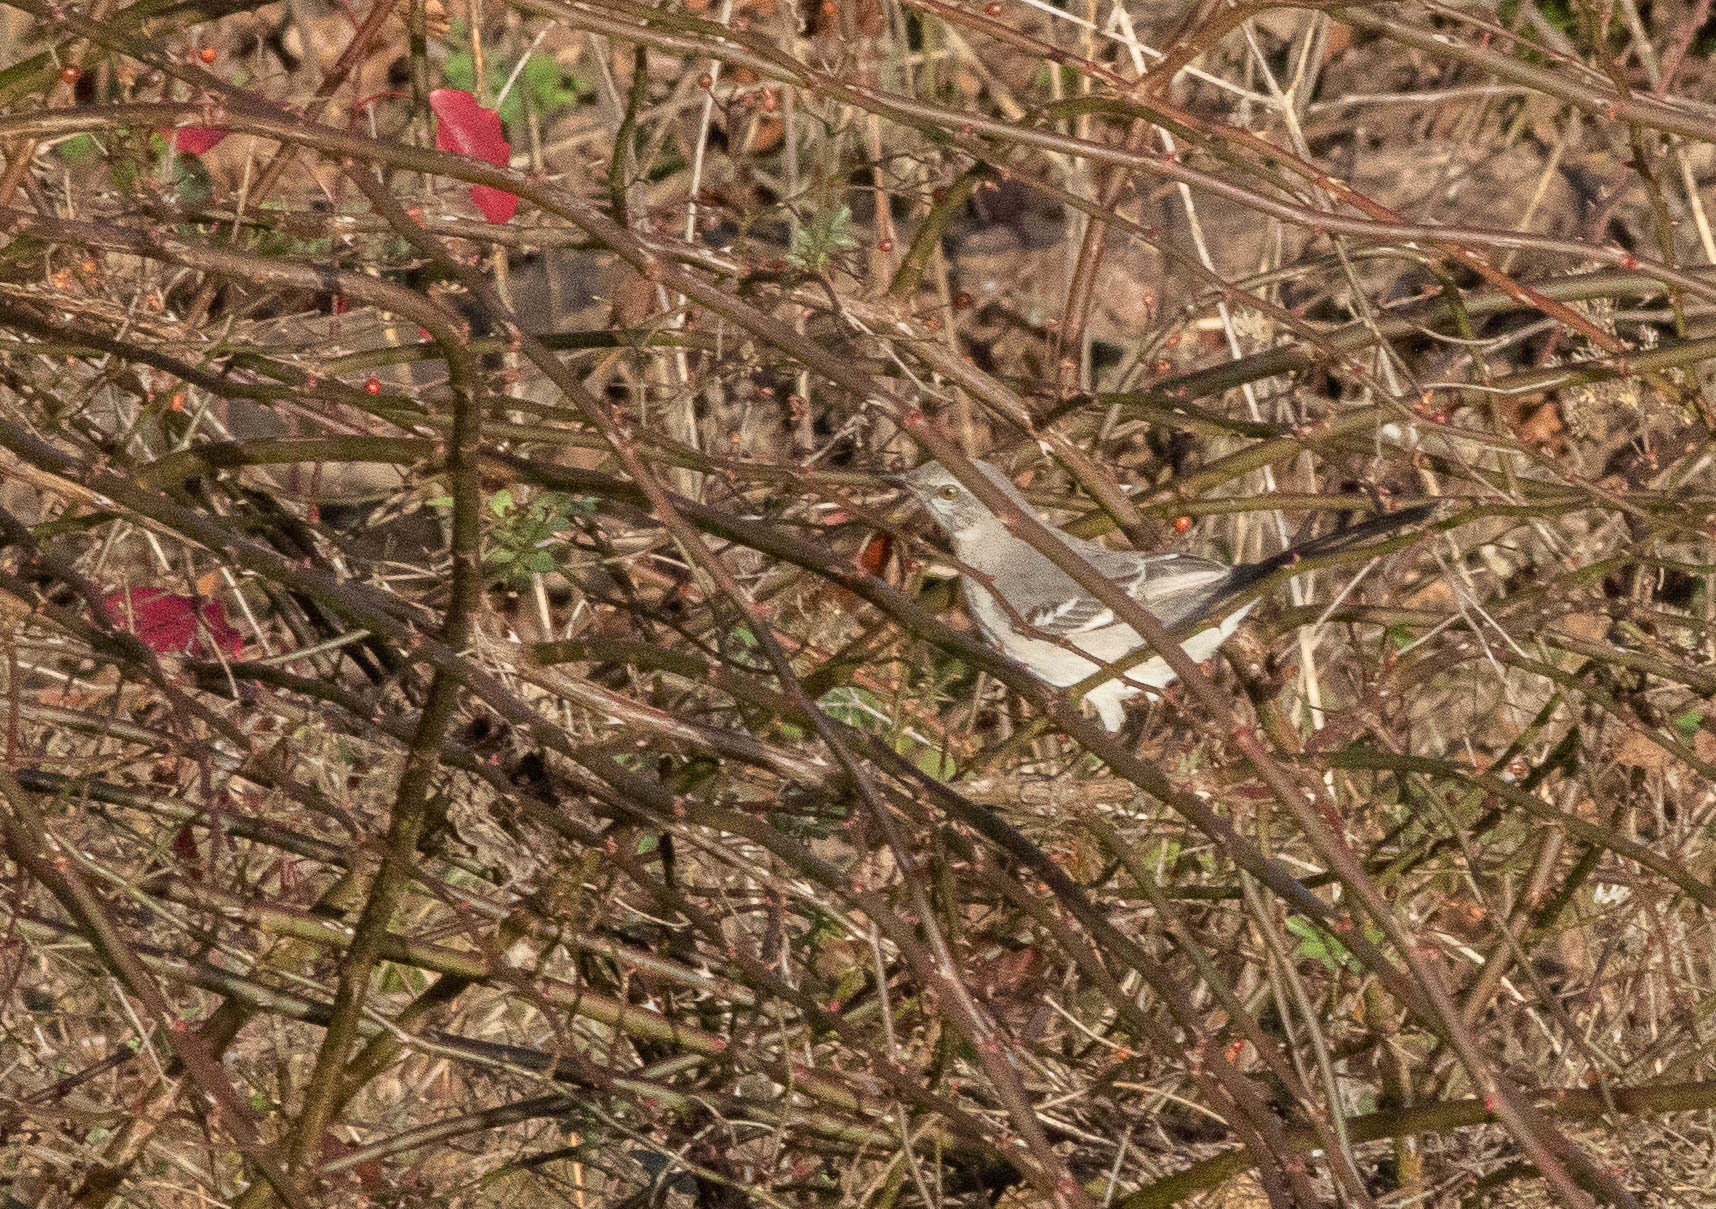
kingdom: Animalia
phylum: Chordata
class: Aves
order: Passeriformes
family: Mimidae
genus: Mimus
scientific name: Mimus polyglottos
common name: Northern mockingbird
